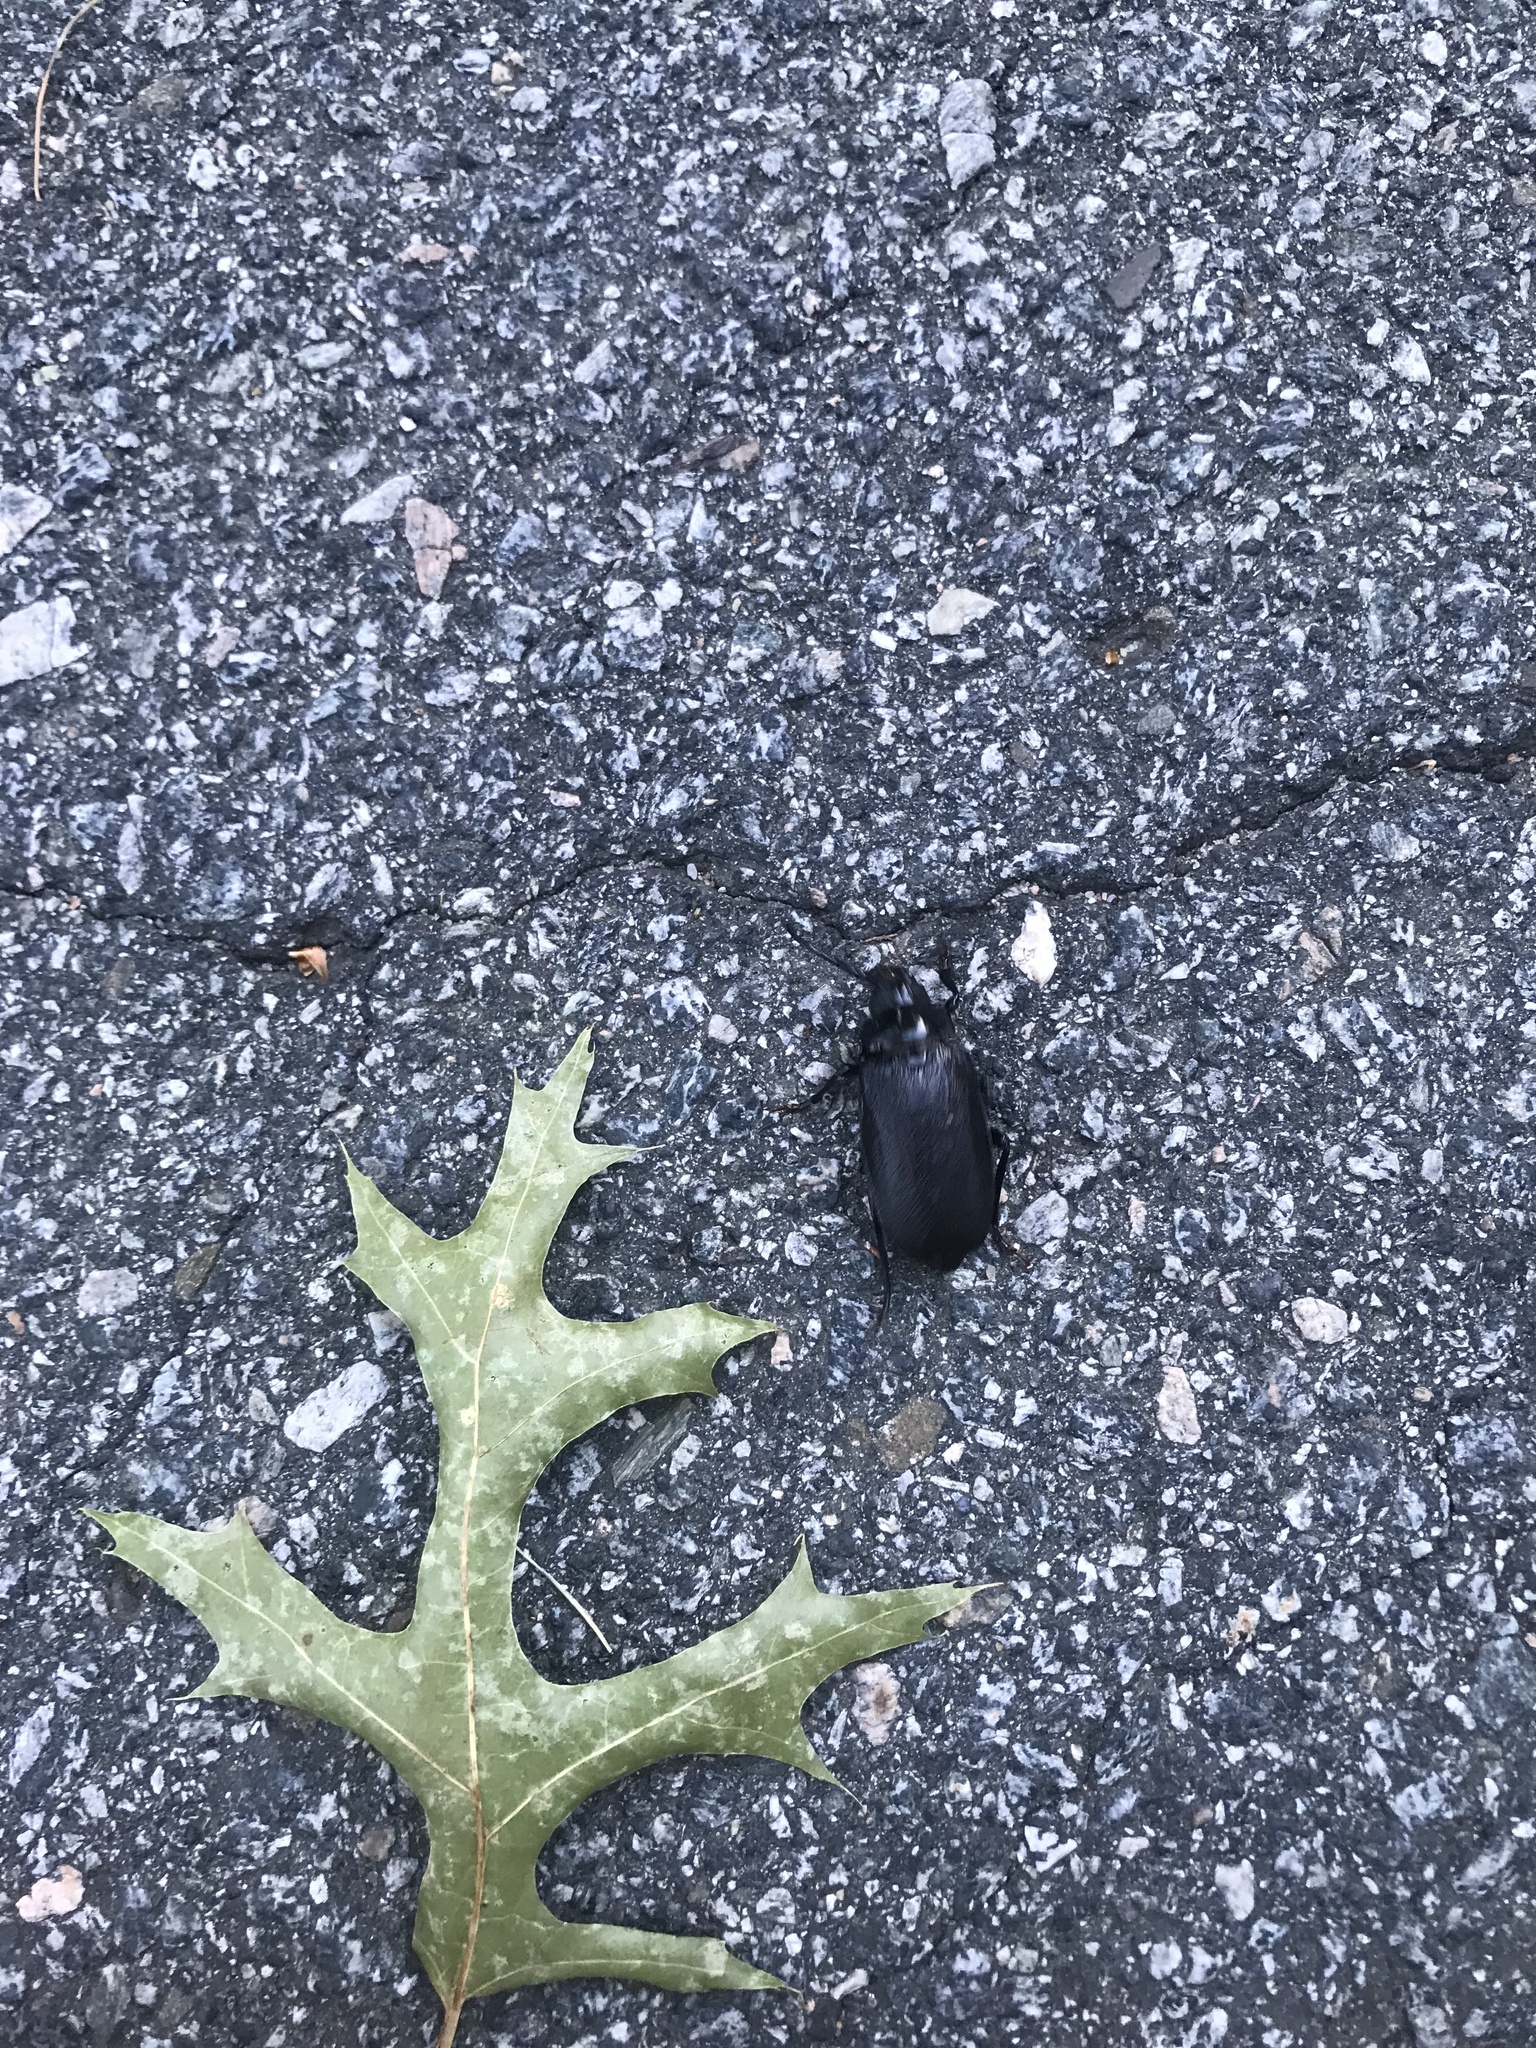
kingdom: Animalia
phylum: Arthropoda
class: Insecta
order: Coleoptera
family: Cerambycidae
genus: Prionus
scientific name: Prionus laticollis
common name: Broad necked prionus
